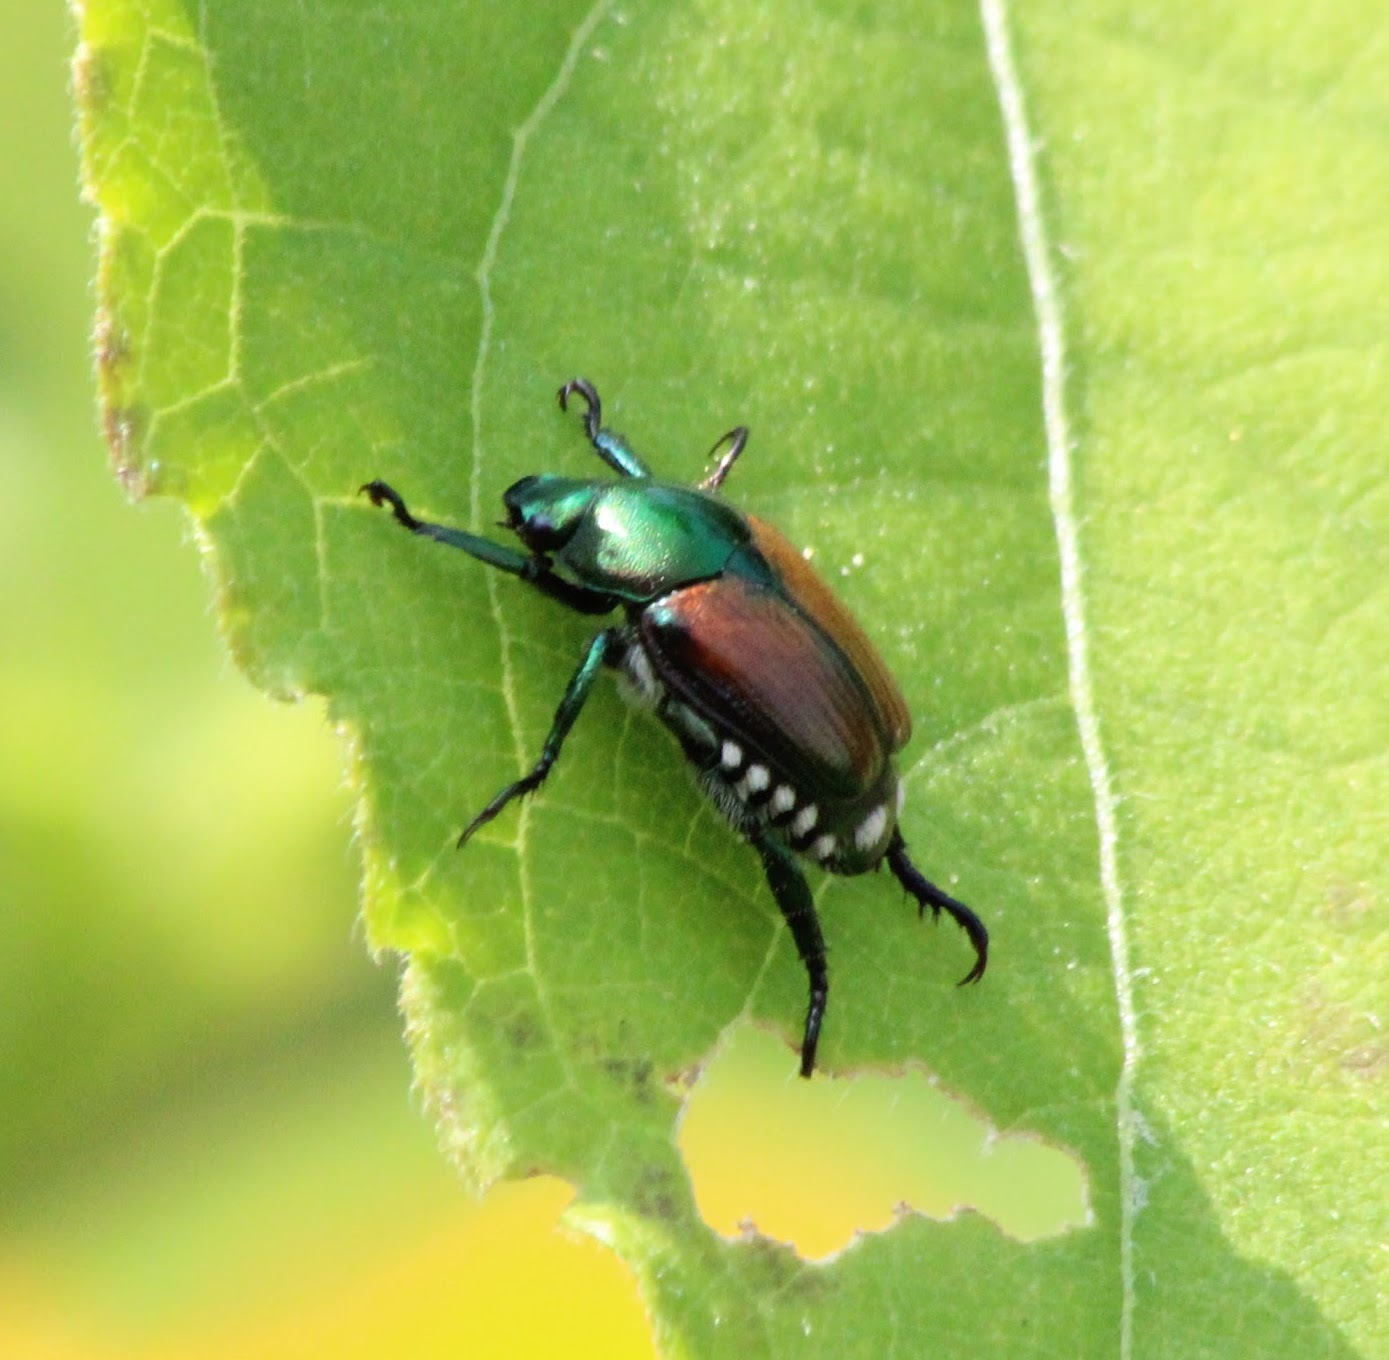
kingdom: Animalia
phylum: Arthropoda
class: Insecta
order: Coleoptera
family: Scarabaeidae
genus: Popillia
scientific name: Popillia japonica
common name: Japanese beetle
